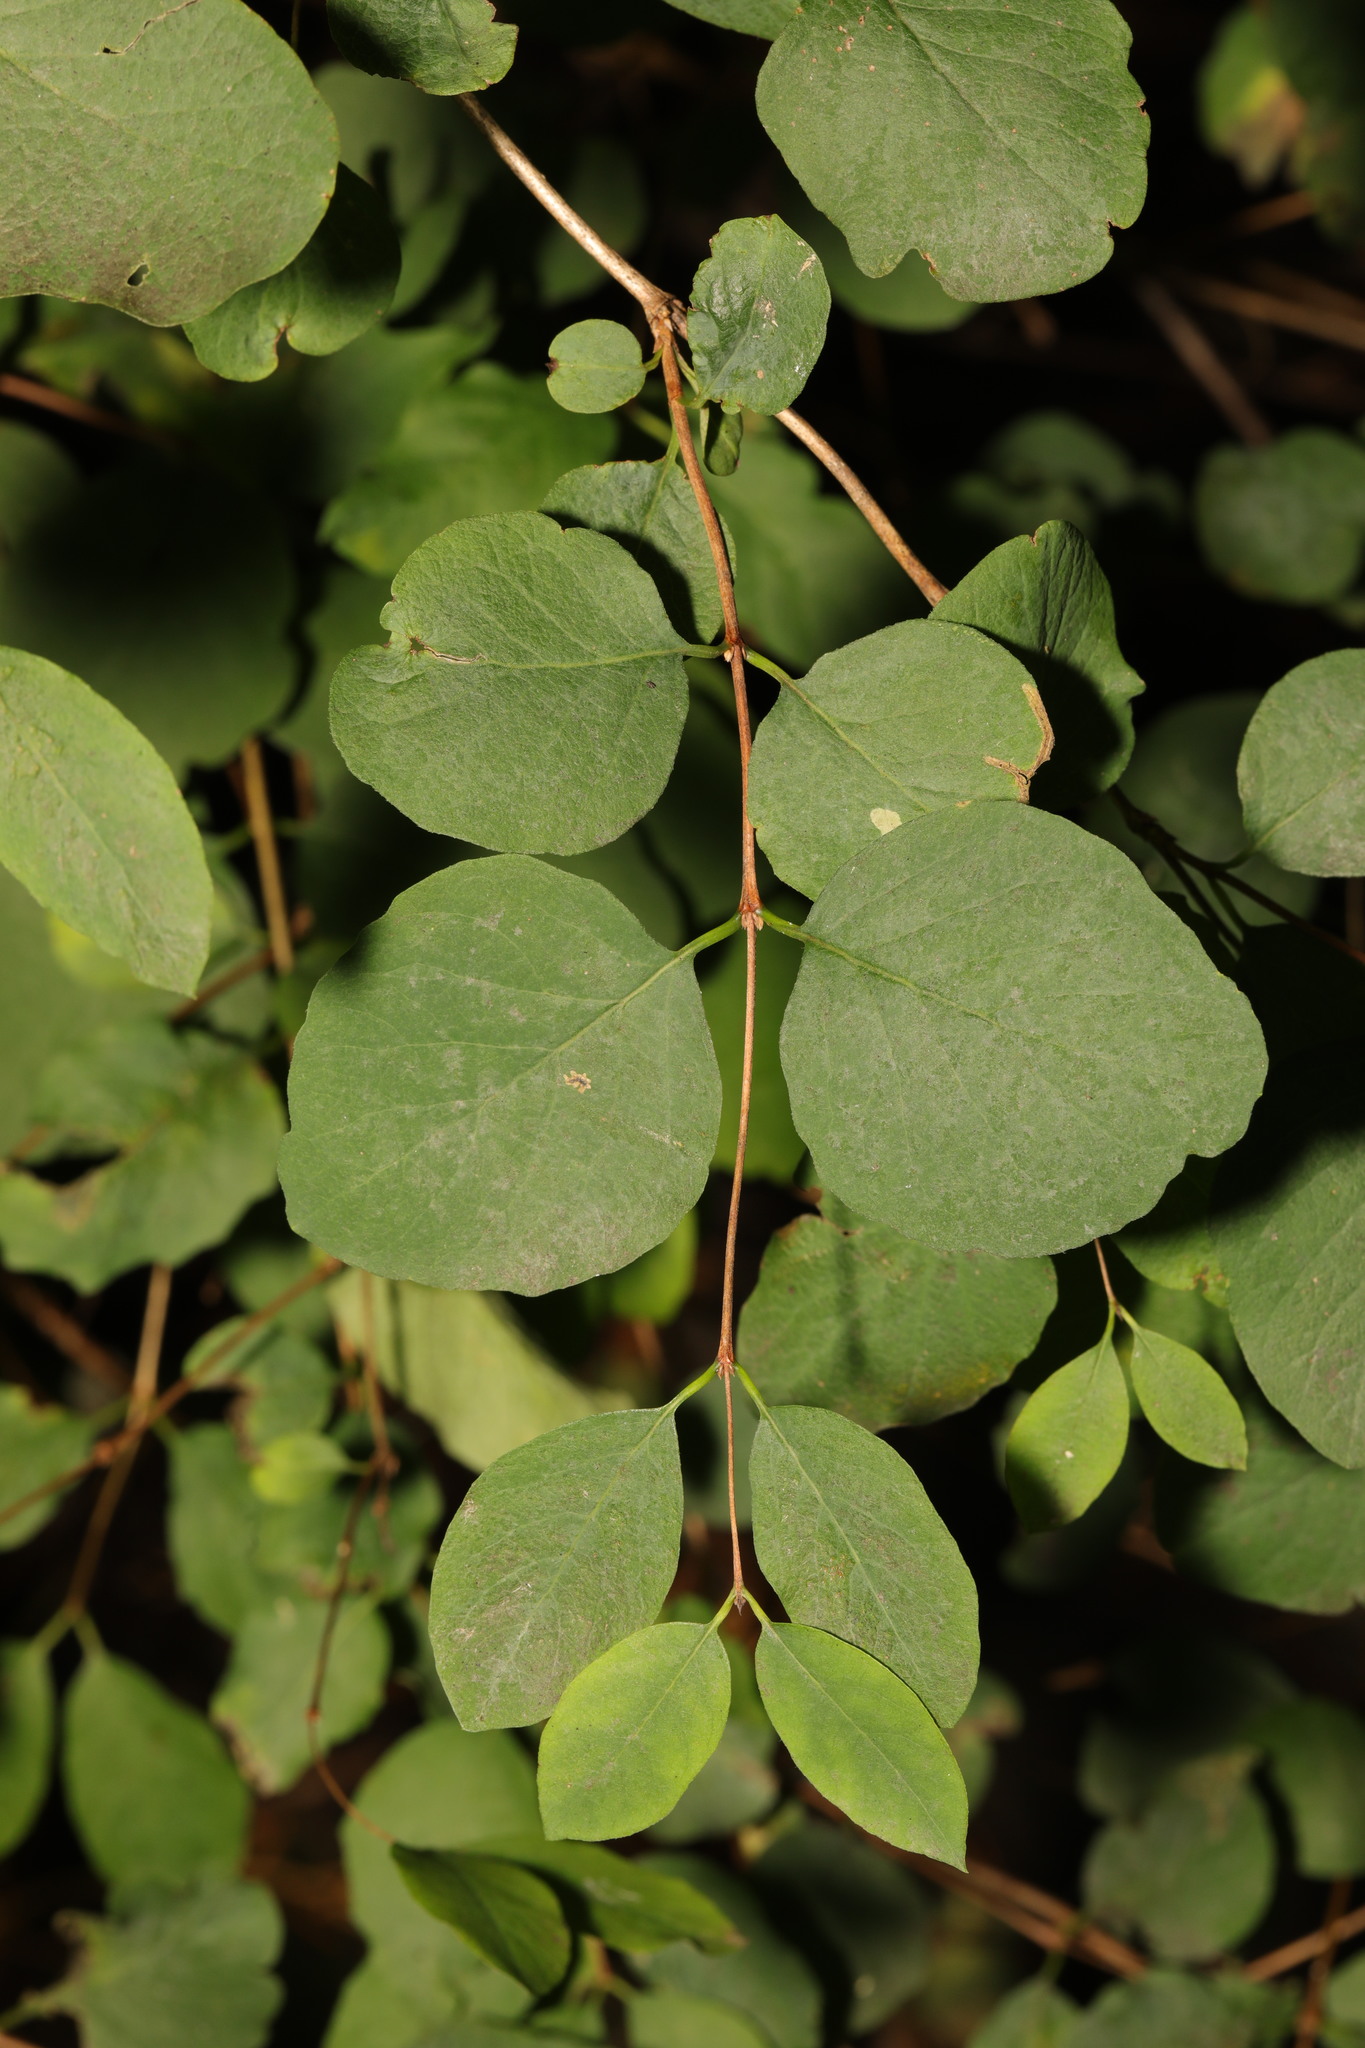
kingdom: Plantae
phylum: Tracheophyta
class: Magnoliopsida
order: Dipsacales
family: Caprifoliaceae
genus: Symphoricarpos
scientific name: Symphoricarpos albus
